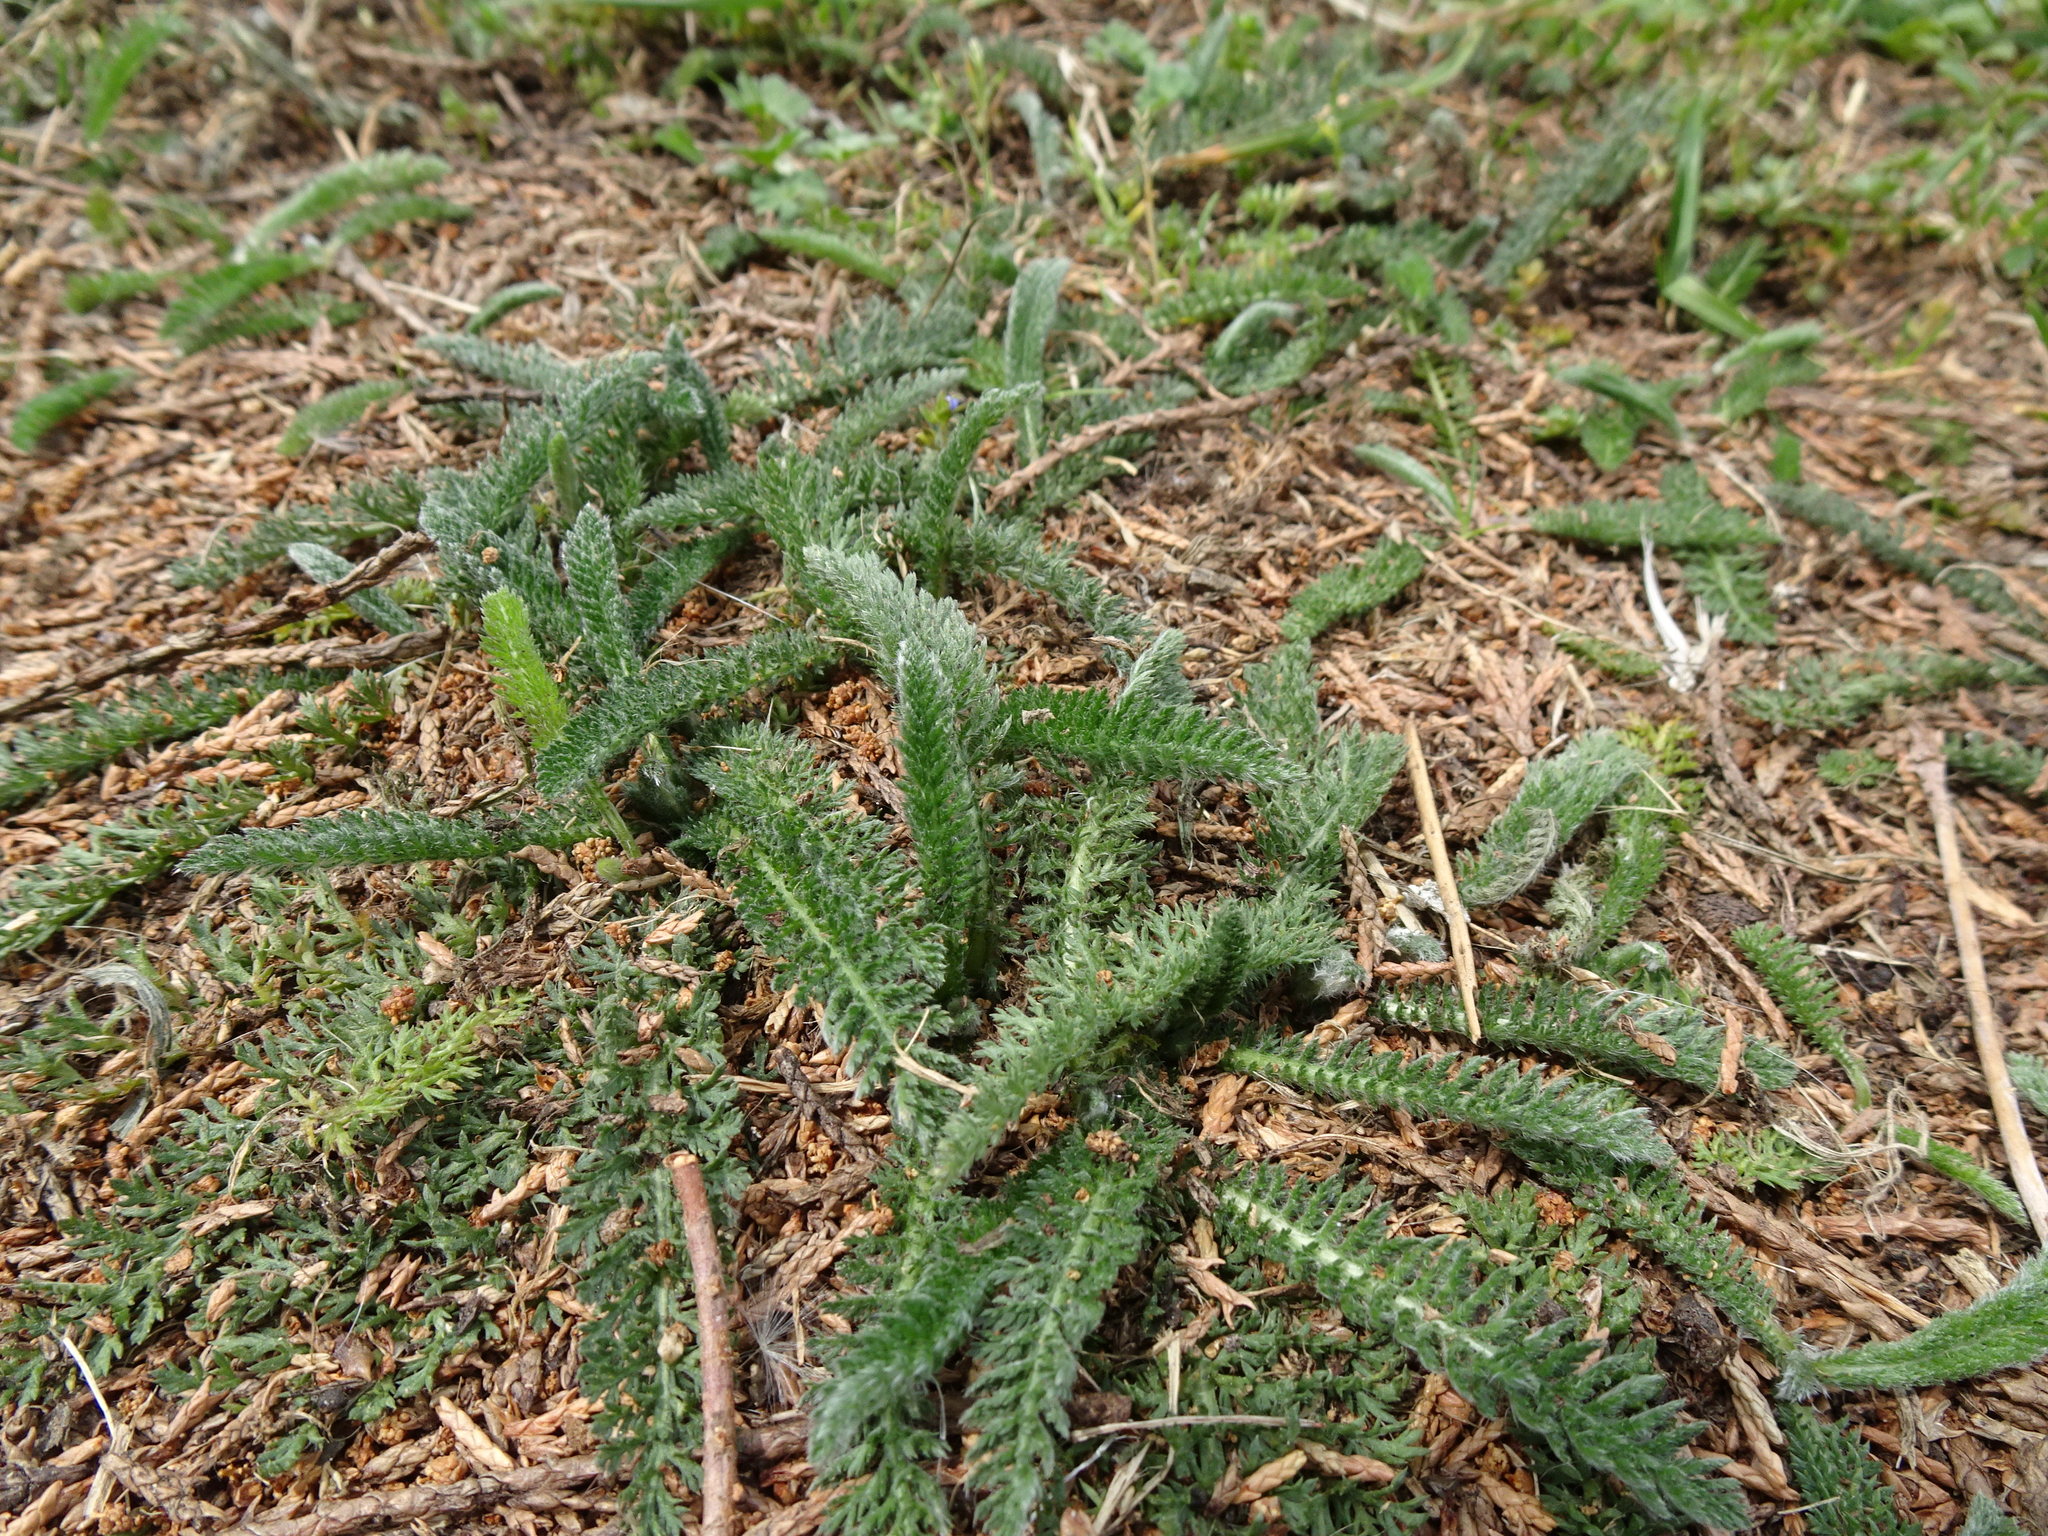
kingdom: Plantae
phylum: Tracheophyta
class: Magnoliopsida
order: Asterales
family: Asteraceae
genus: Achillea
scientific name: Achillea millefolium
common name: Yarrow
